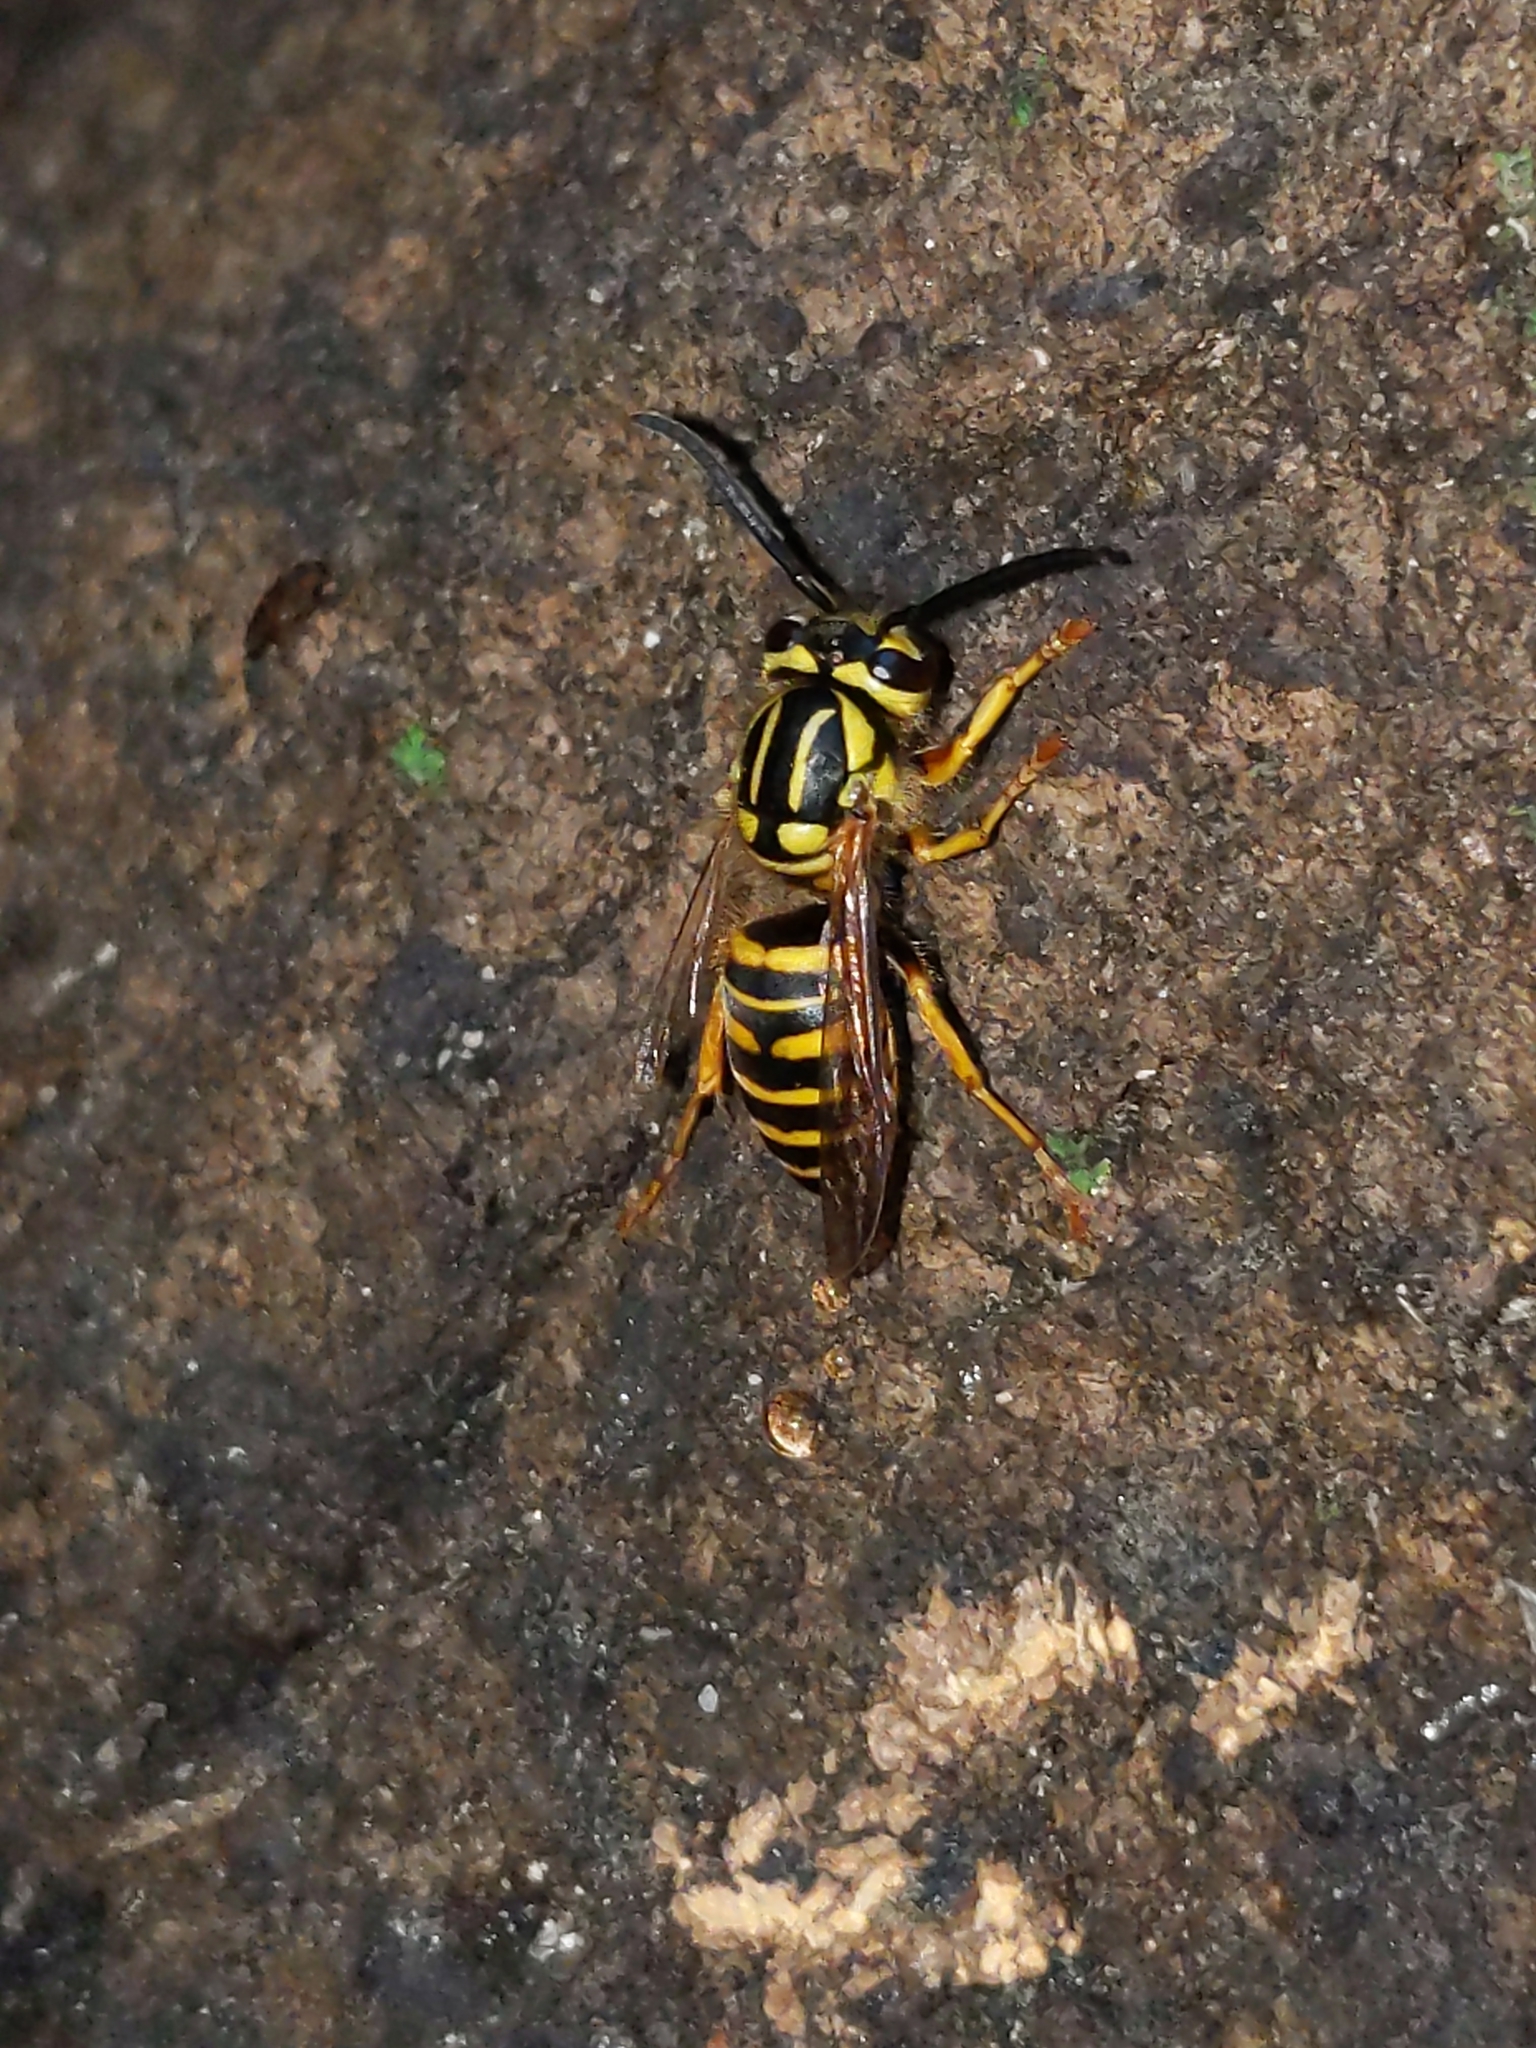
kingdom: Animalia
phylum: Arthropoda
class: Insecta
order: Hymenoptera
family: Vespidae
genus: Vespula
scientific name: Vespula squamosa
